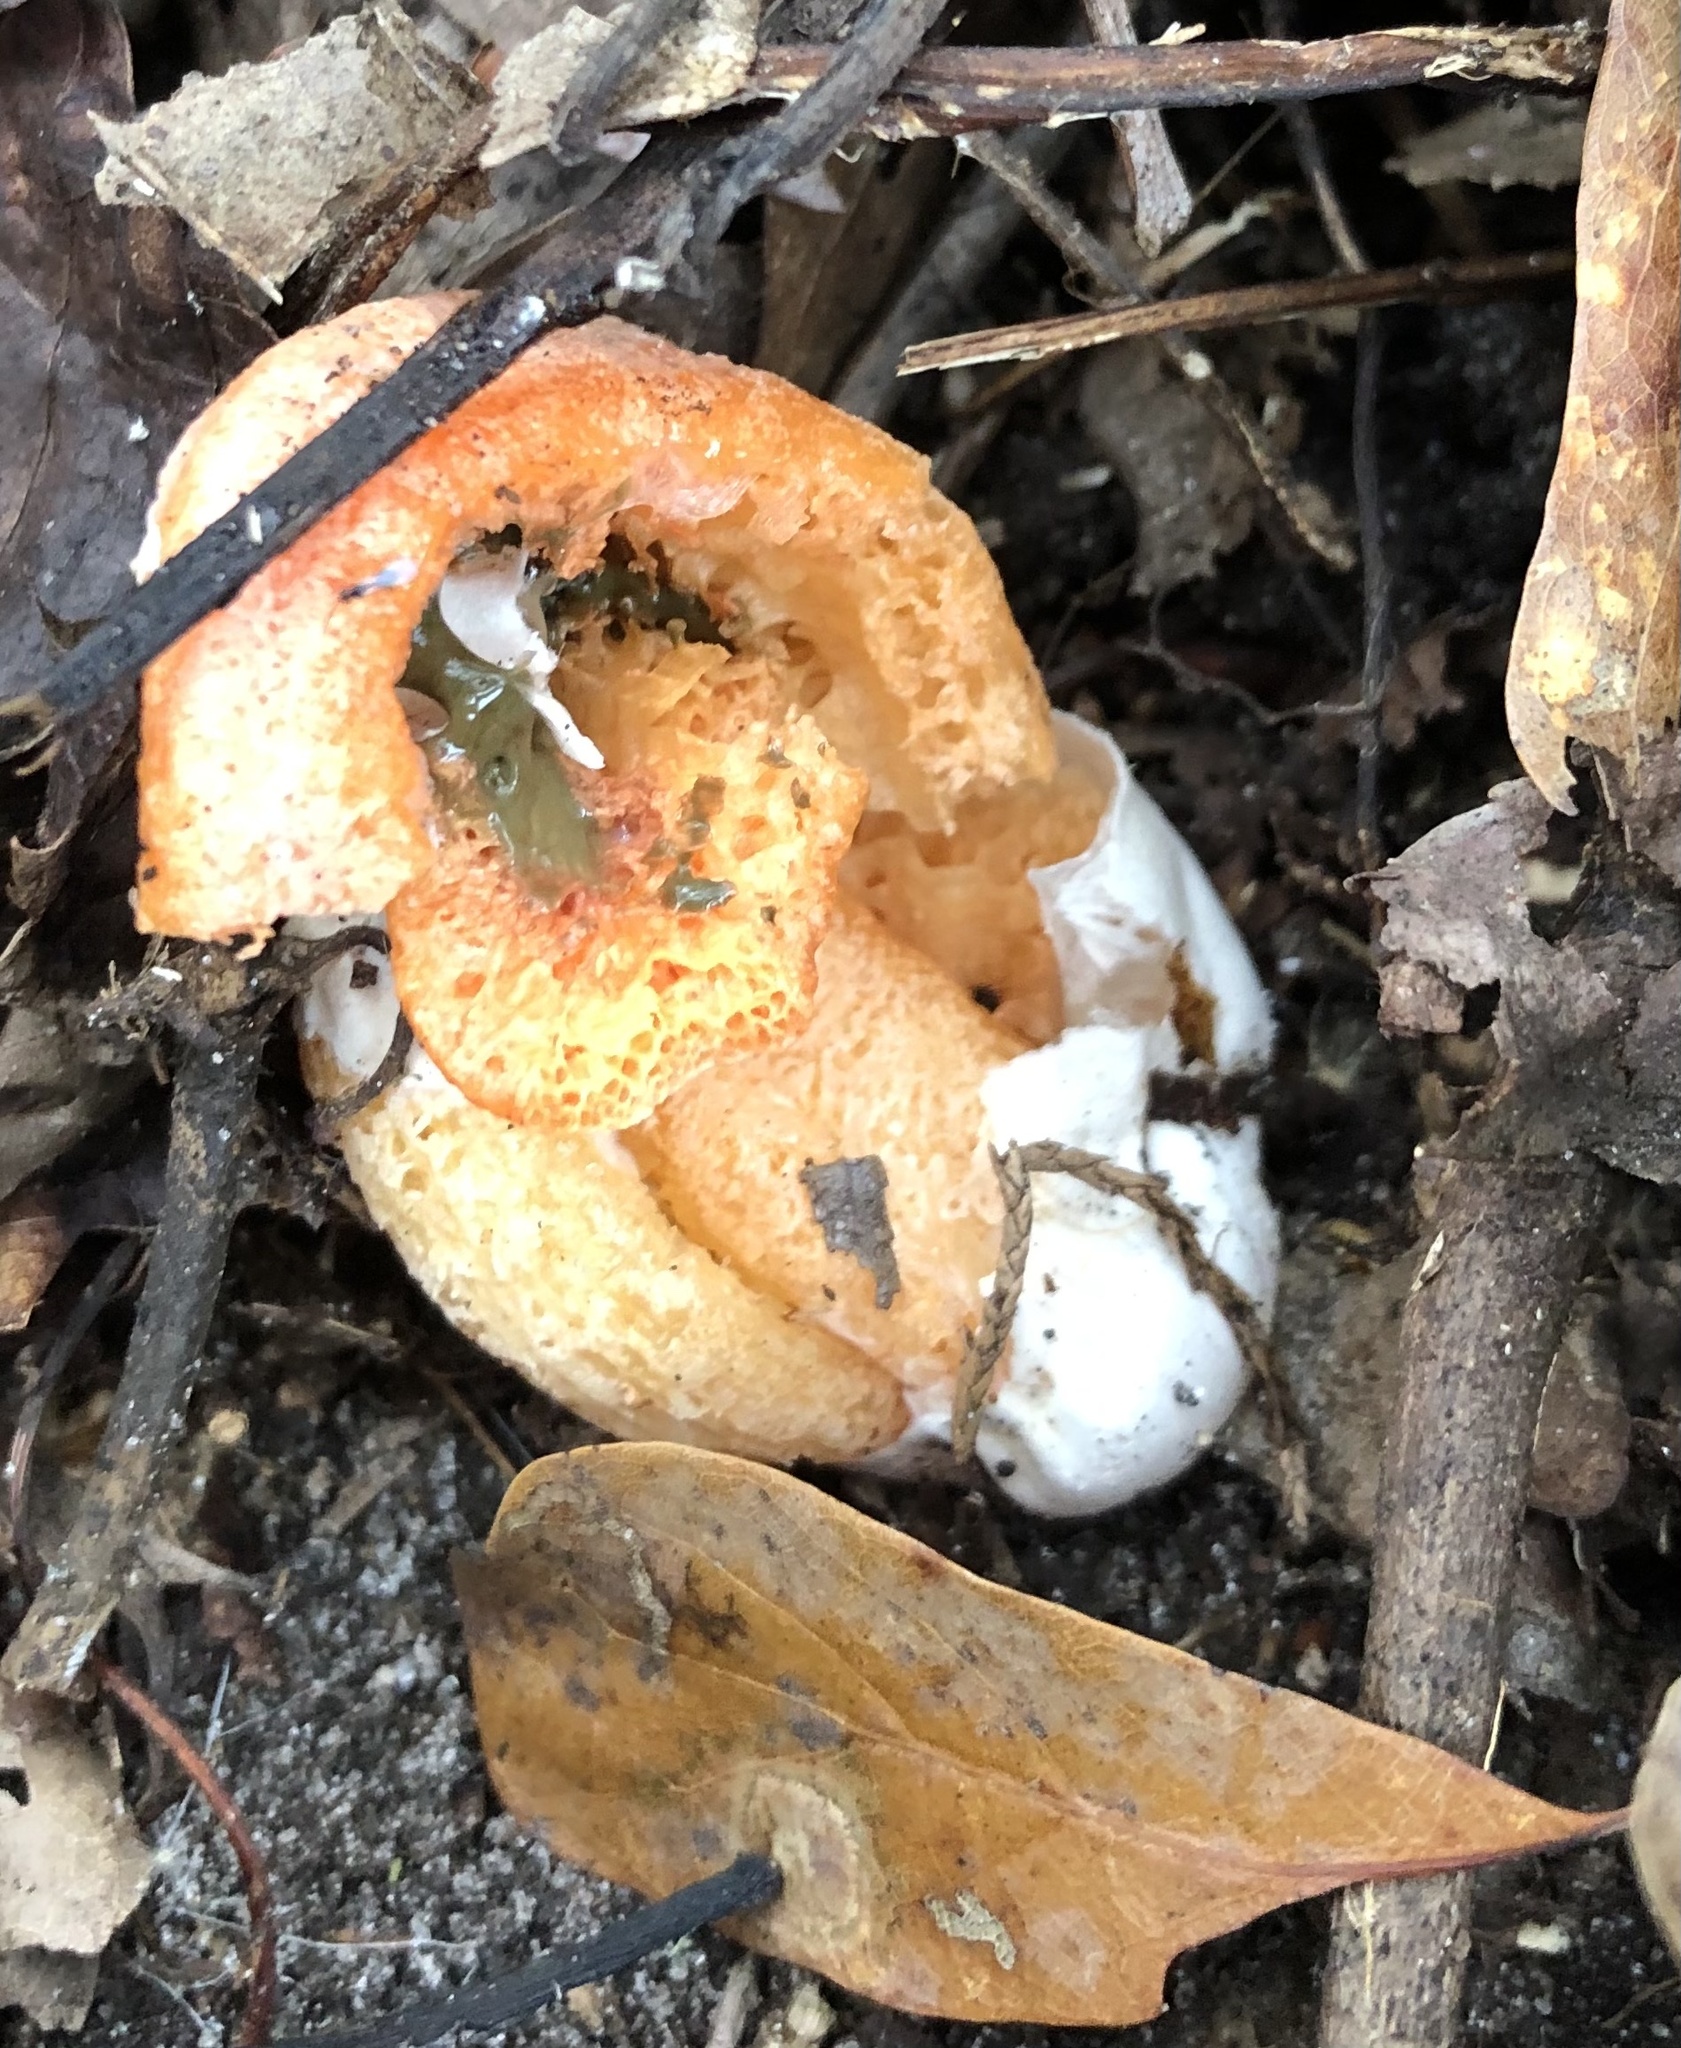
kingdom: Fungi
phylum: Basidiomycota
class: Agaricomycetes
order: Phallales
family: Phallaceae
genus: Clathrus
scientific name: Clathrus columnatus
